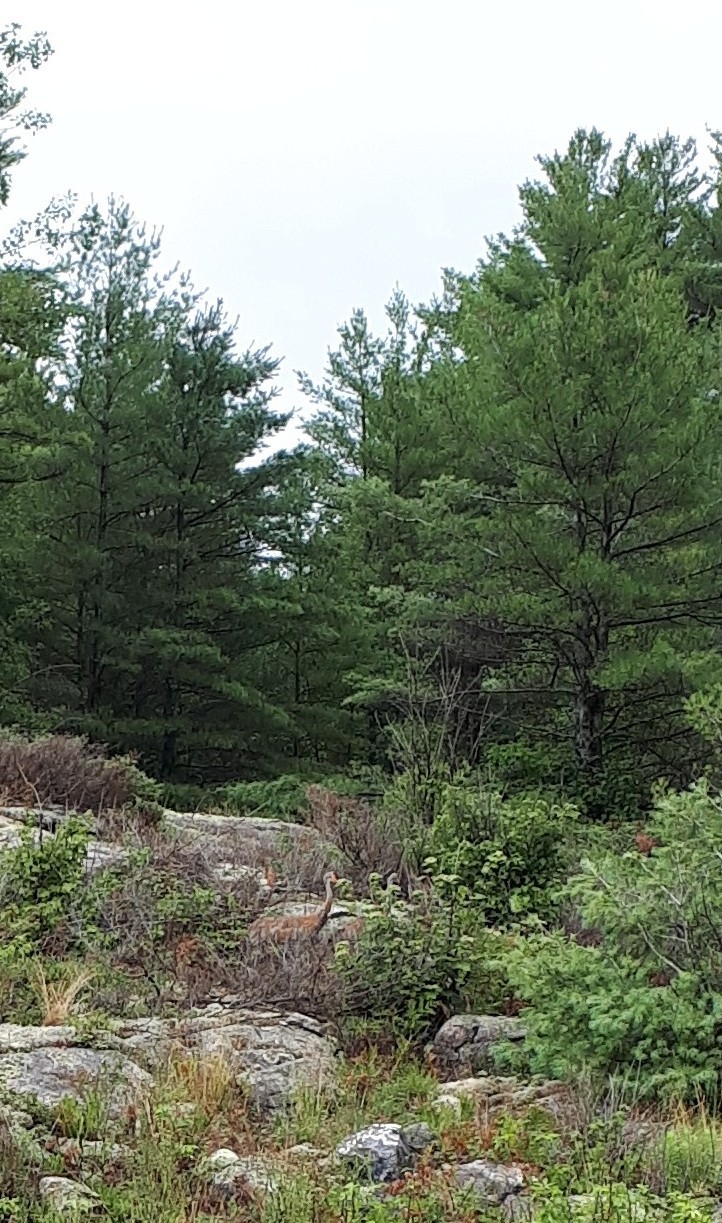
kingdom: Animalia
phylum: Chordata
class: Aves
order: Gruiformes
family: Gruidae
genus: Grus
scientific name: Grus canadensis
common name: Sandhill crane
